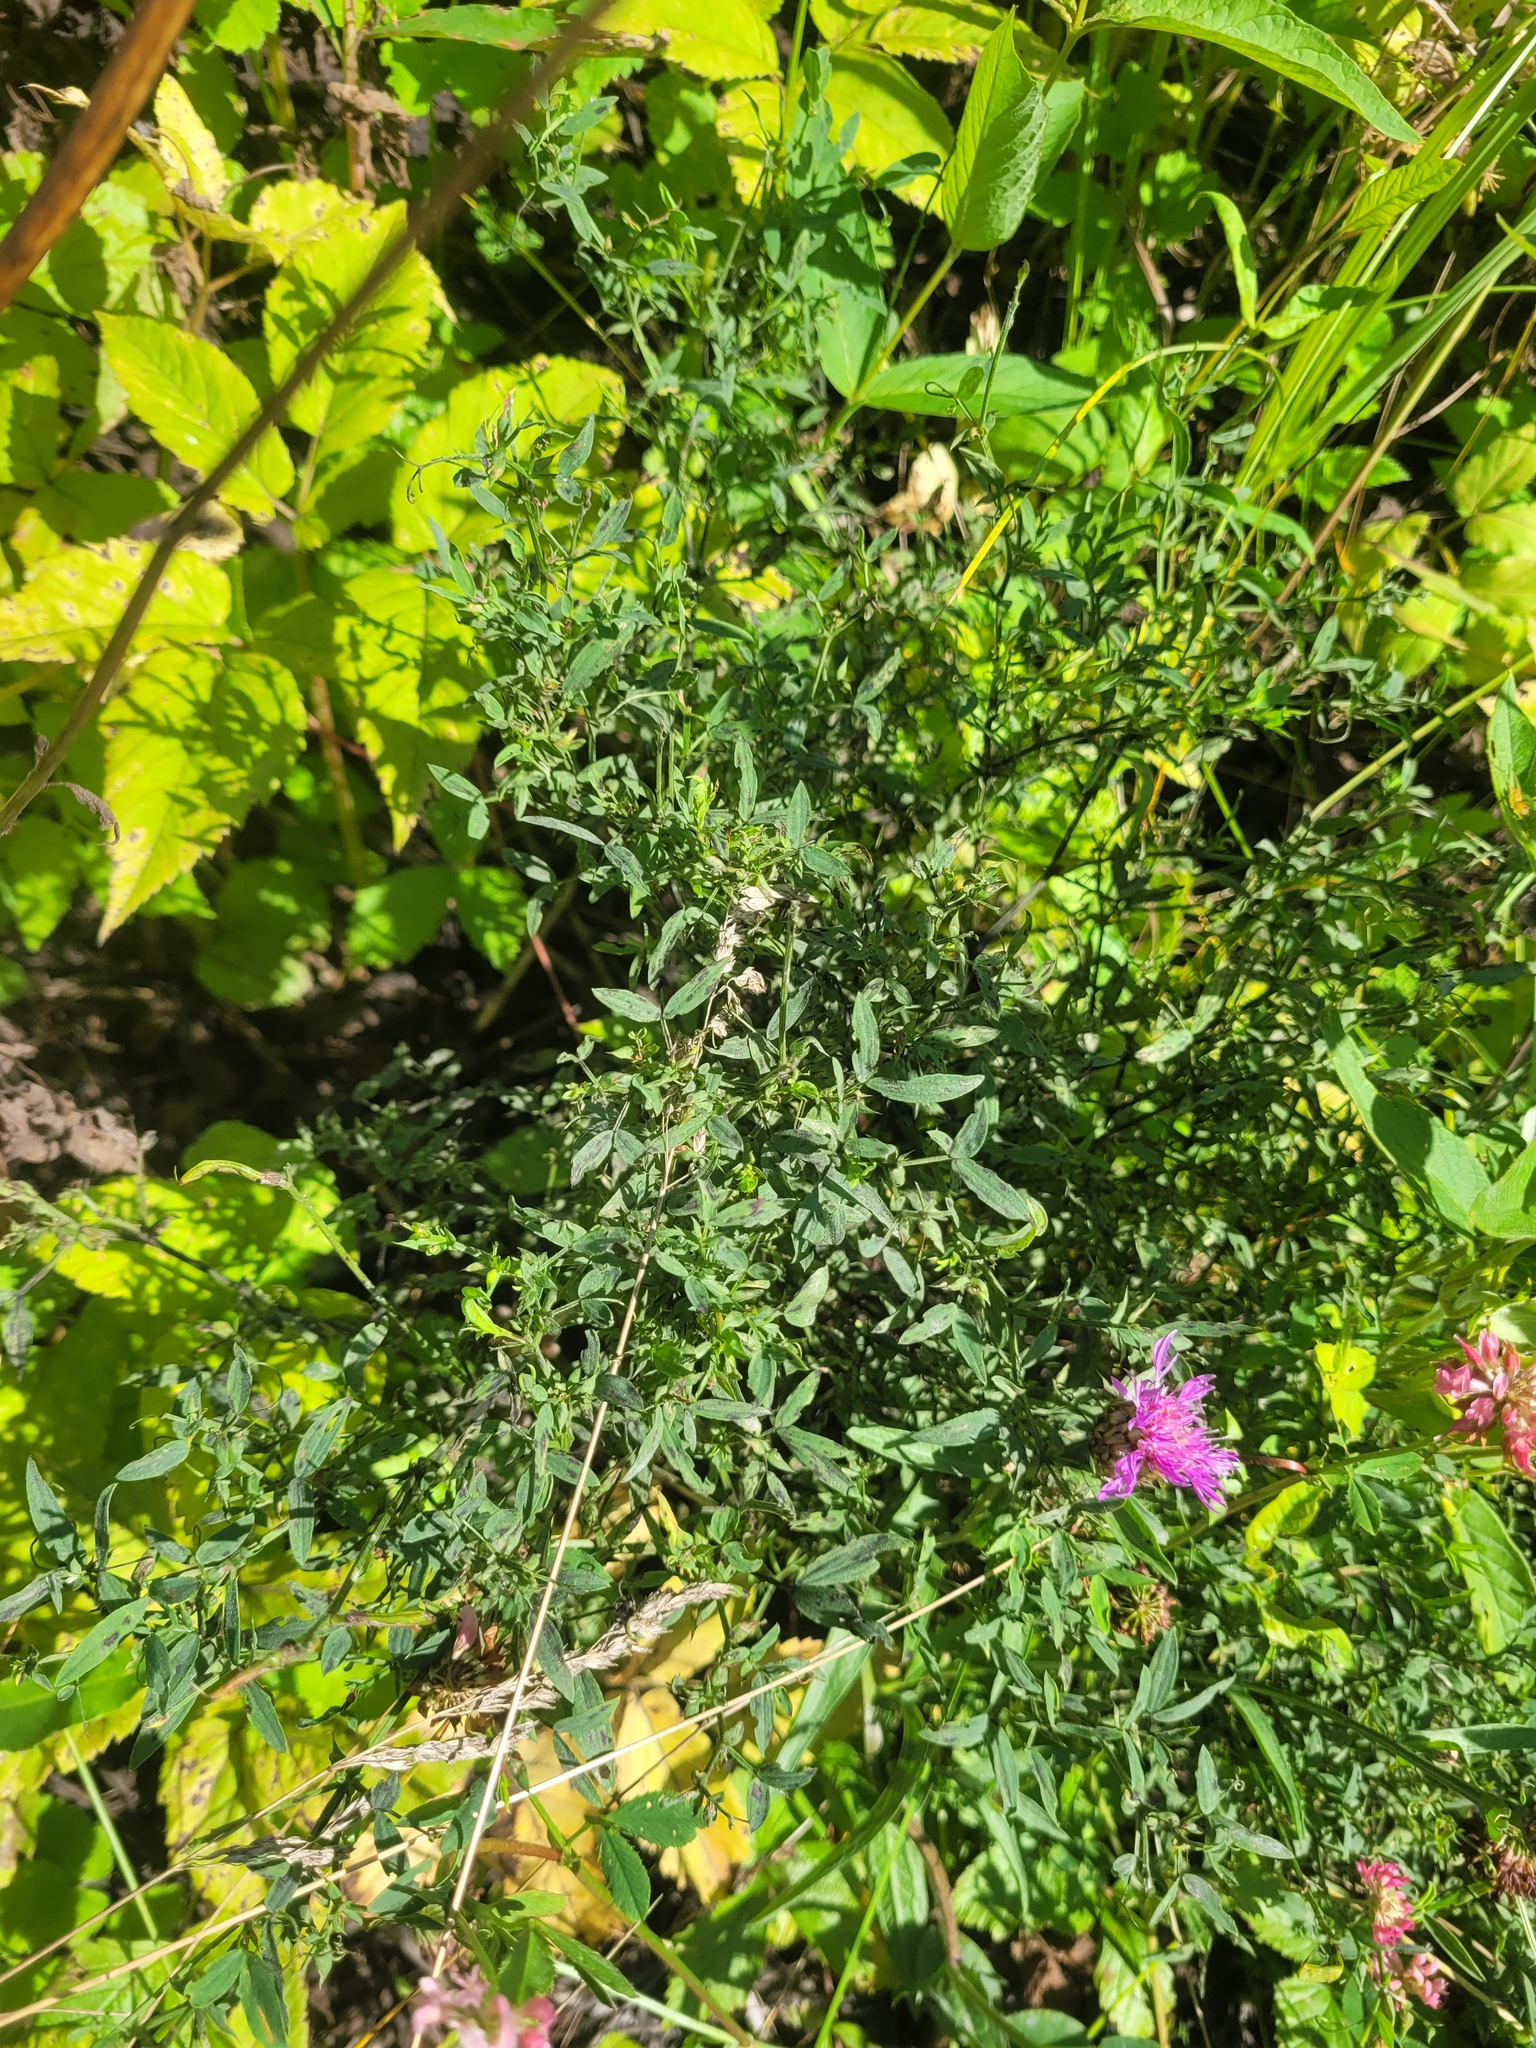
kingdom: Plantae
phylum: Tracheophyta
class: Magnoliopsida
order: Fabales
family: Fabaceae
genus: Lathyrus
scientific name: Lathyrus pratensis
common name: Meadow vetchling
